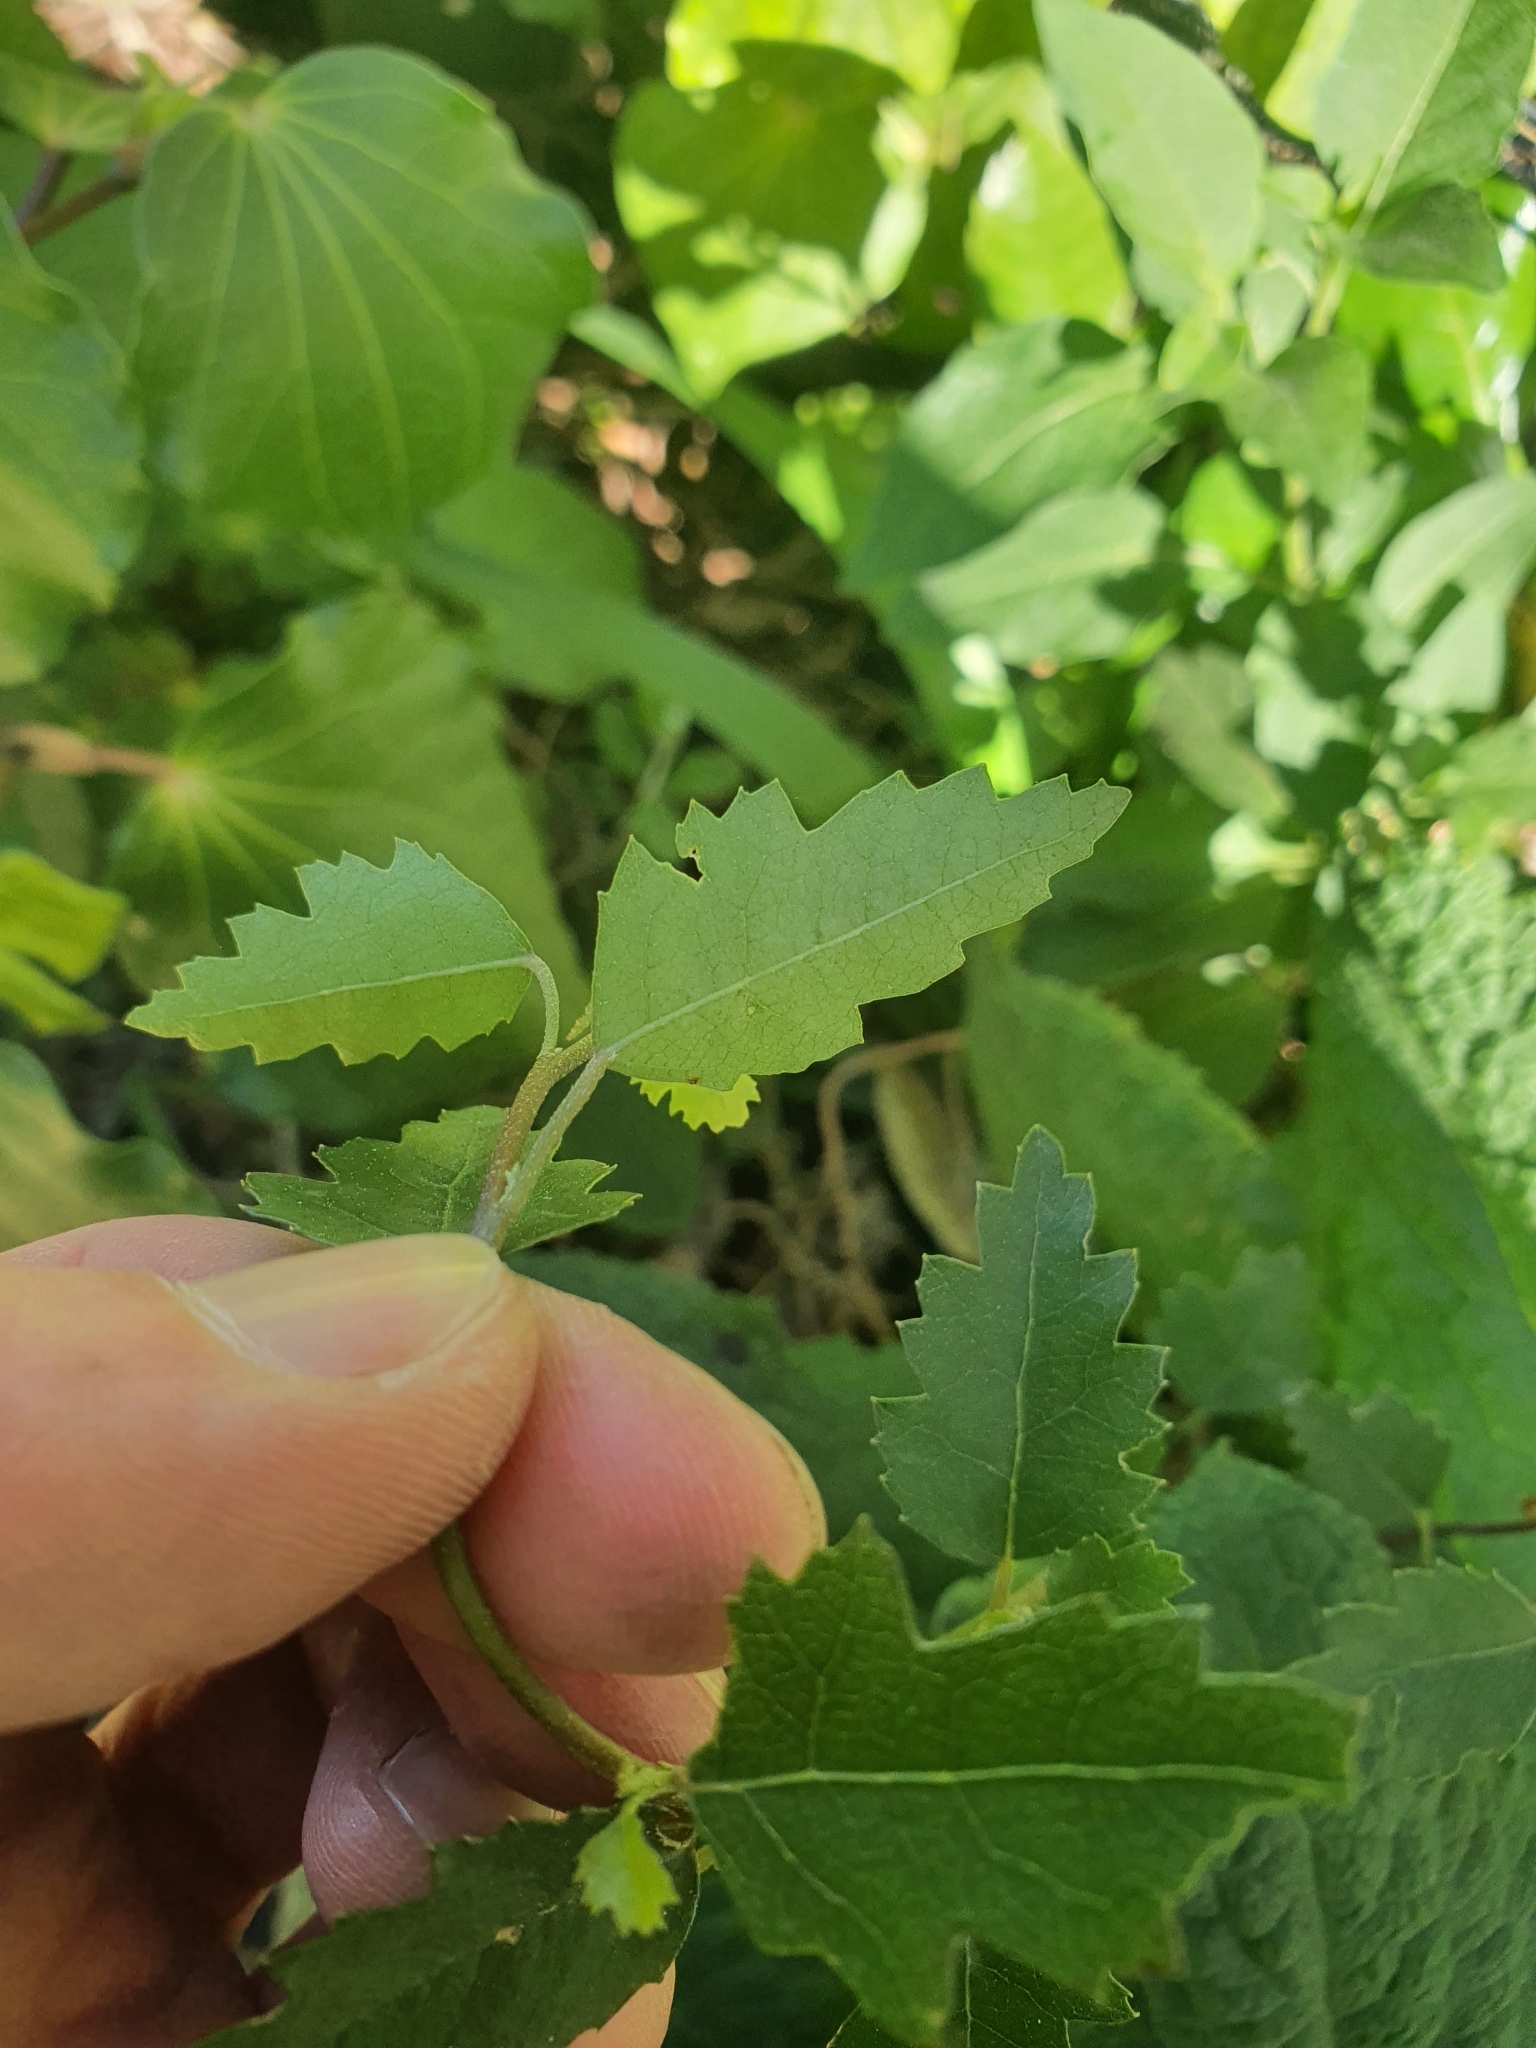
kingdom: Plantae
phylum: Tracheophyta
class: Magnoliopsida
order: Malvales
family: Malvaceae
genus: Plagianthus
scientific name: Plagianthus regius
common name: Manatu
